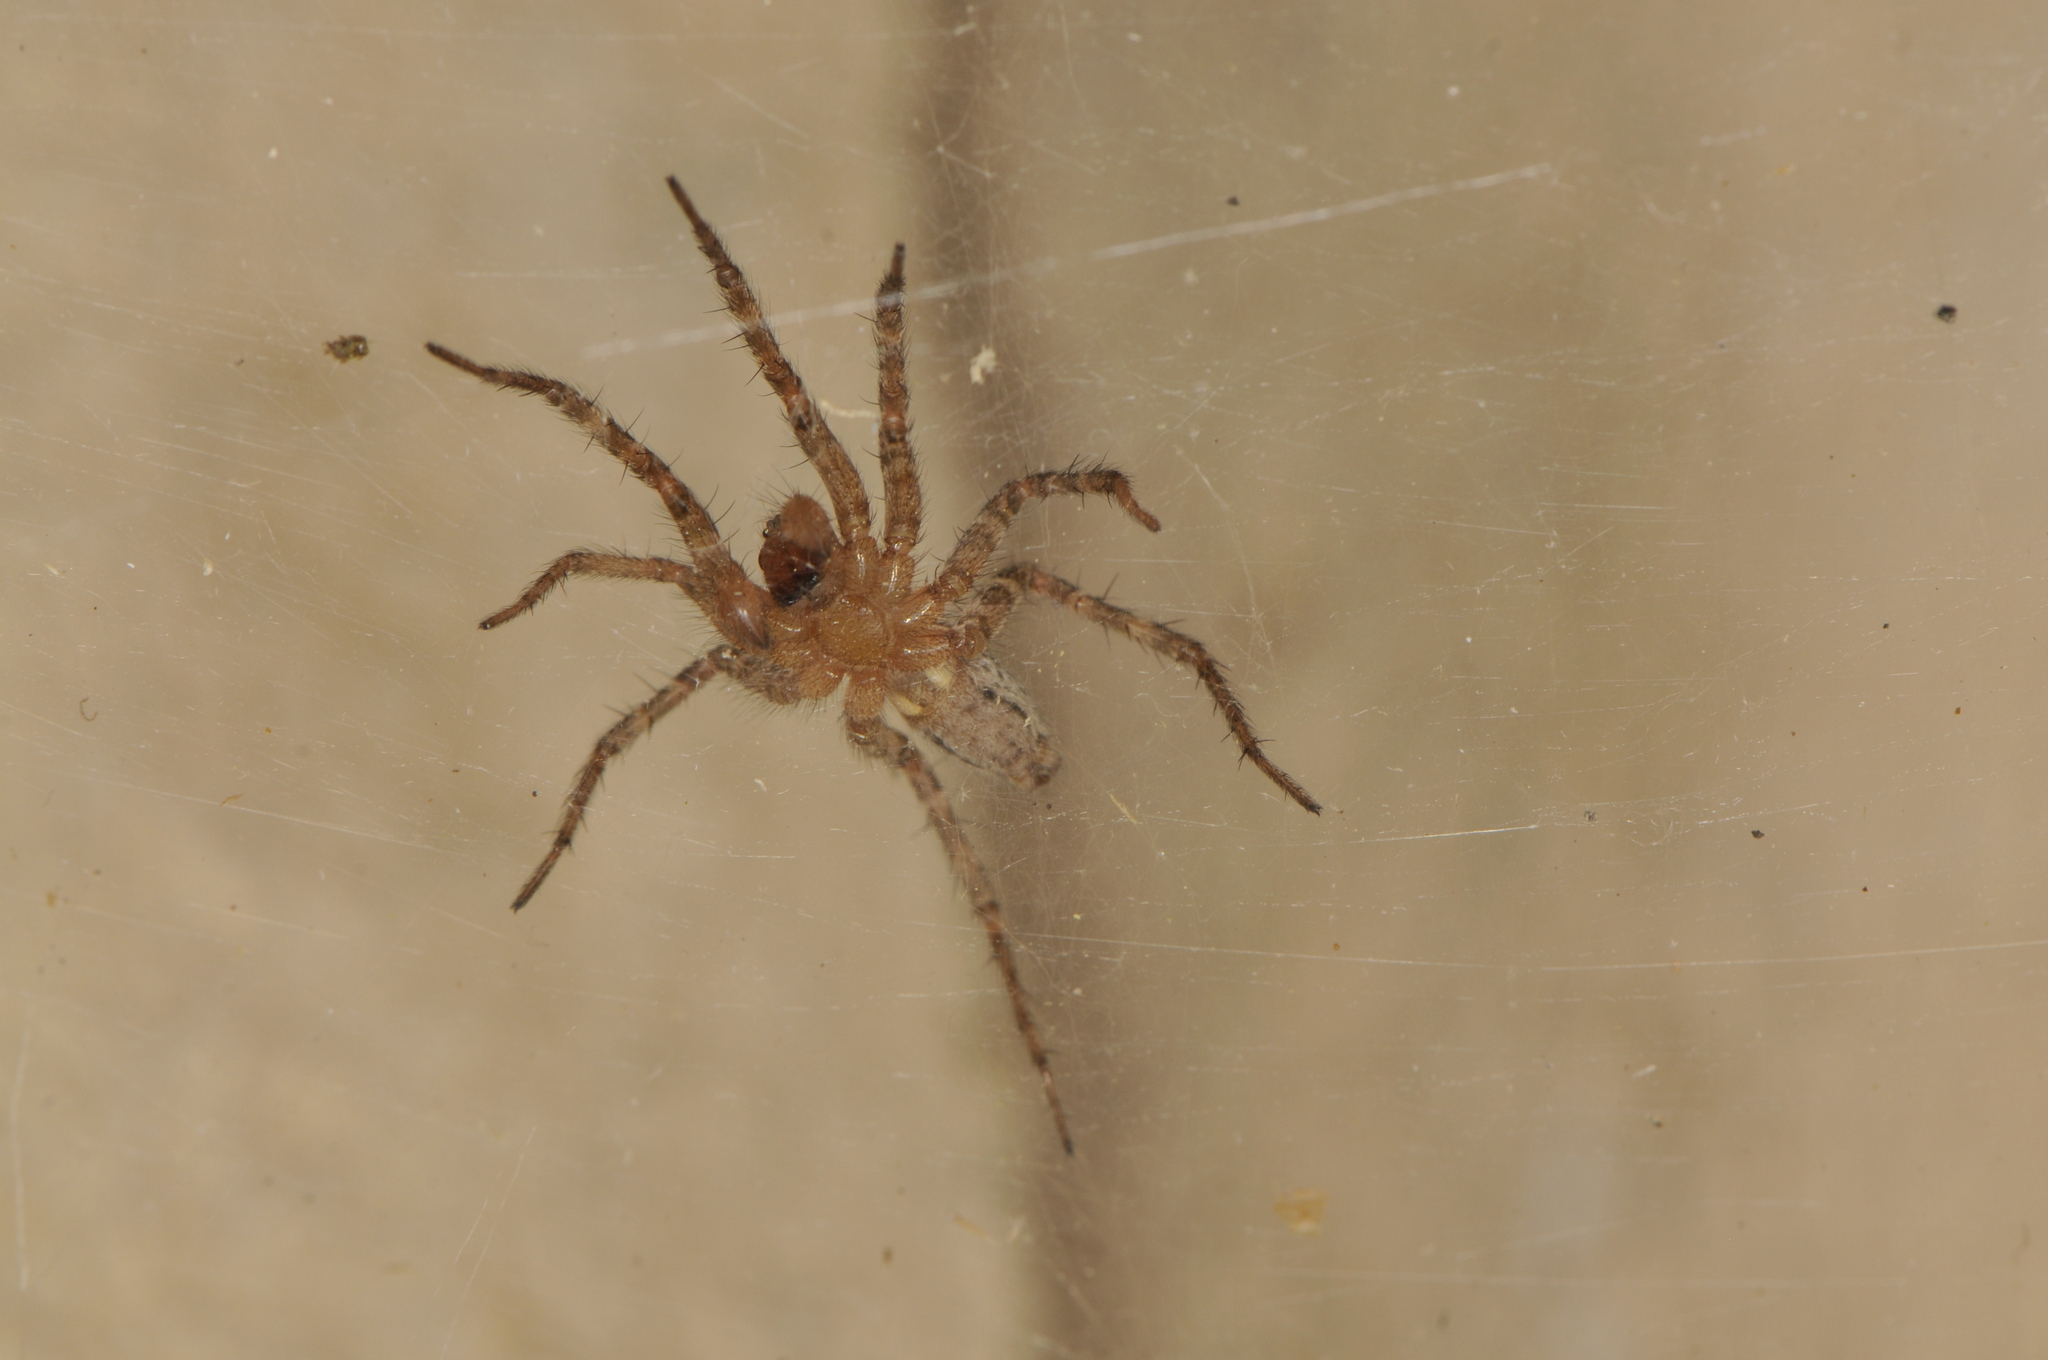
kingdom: Animalia
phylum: Arthropoda
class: Arachnida
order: Araneae
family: Agelenidae
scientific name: Agelenidae
